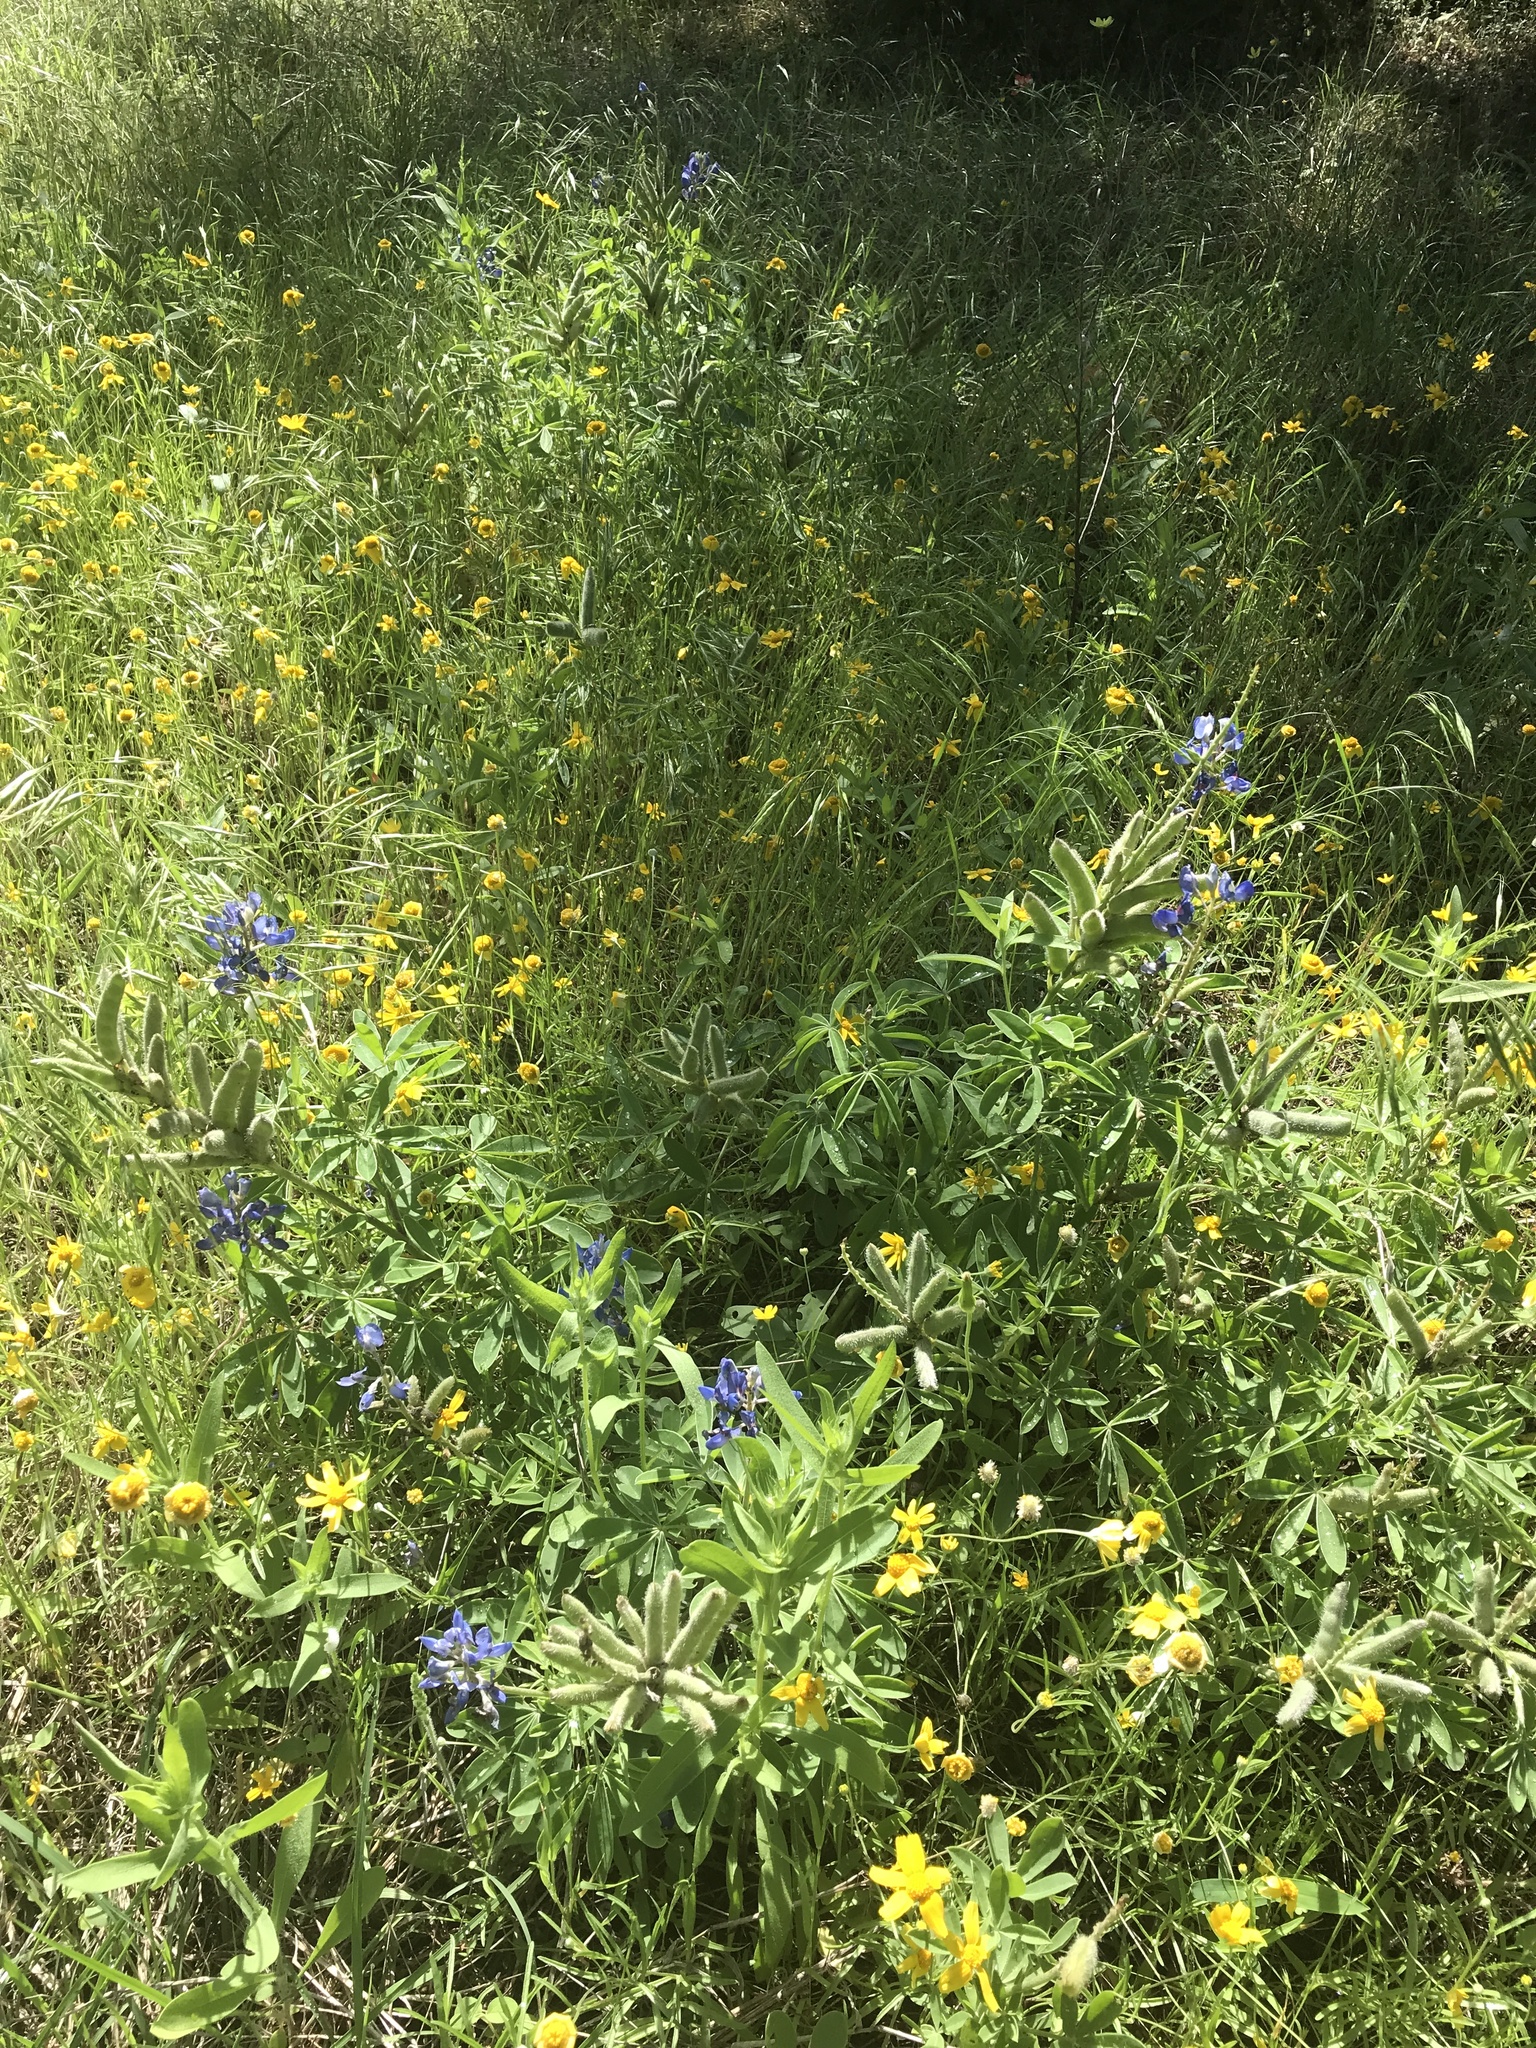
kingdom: Plantae
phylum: Tracheophyta
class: Magnoliopsida
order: Fabales
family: Fabaceae
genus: Lupinus
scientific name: Lupinus texensis
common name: Texas bluebonnet
